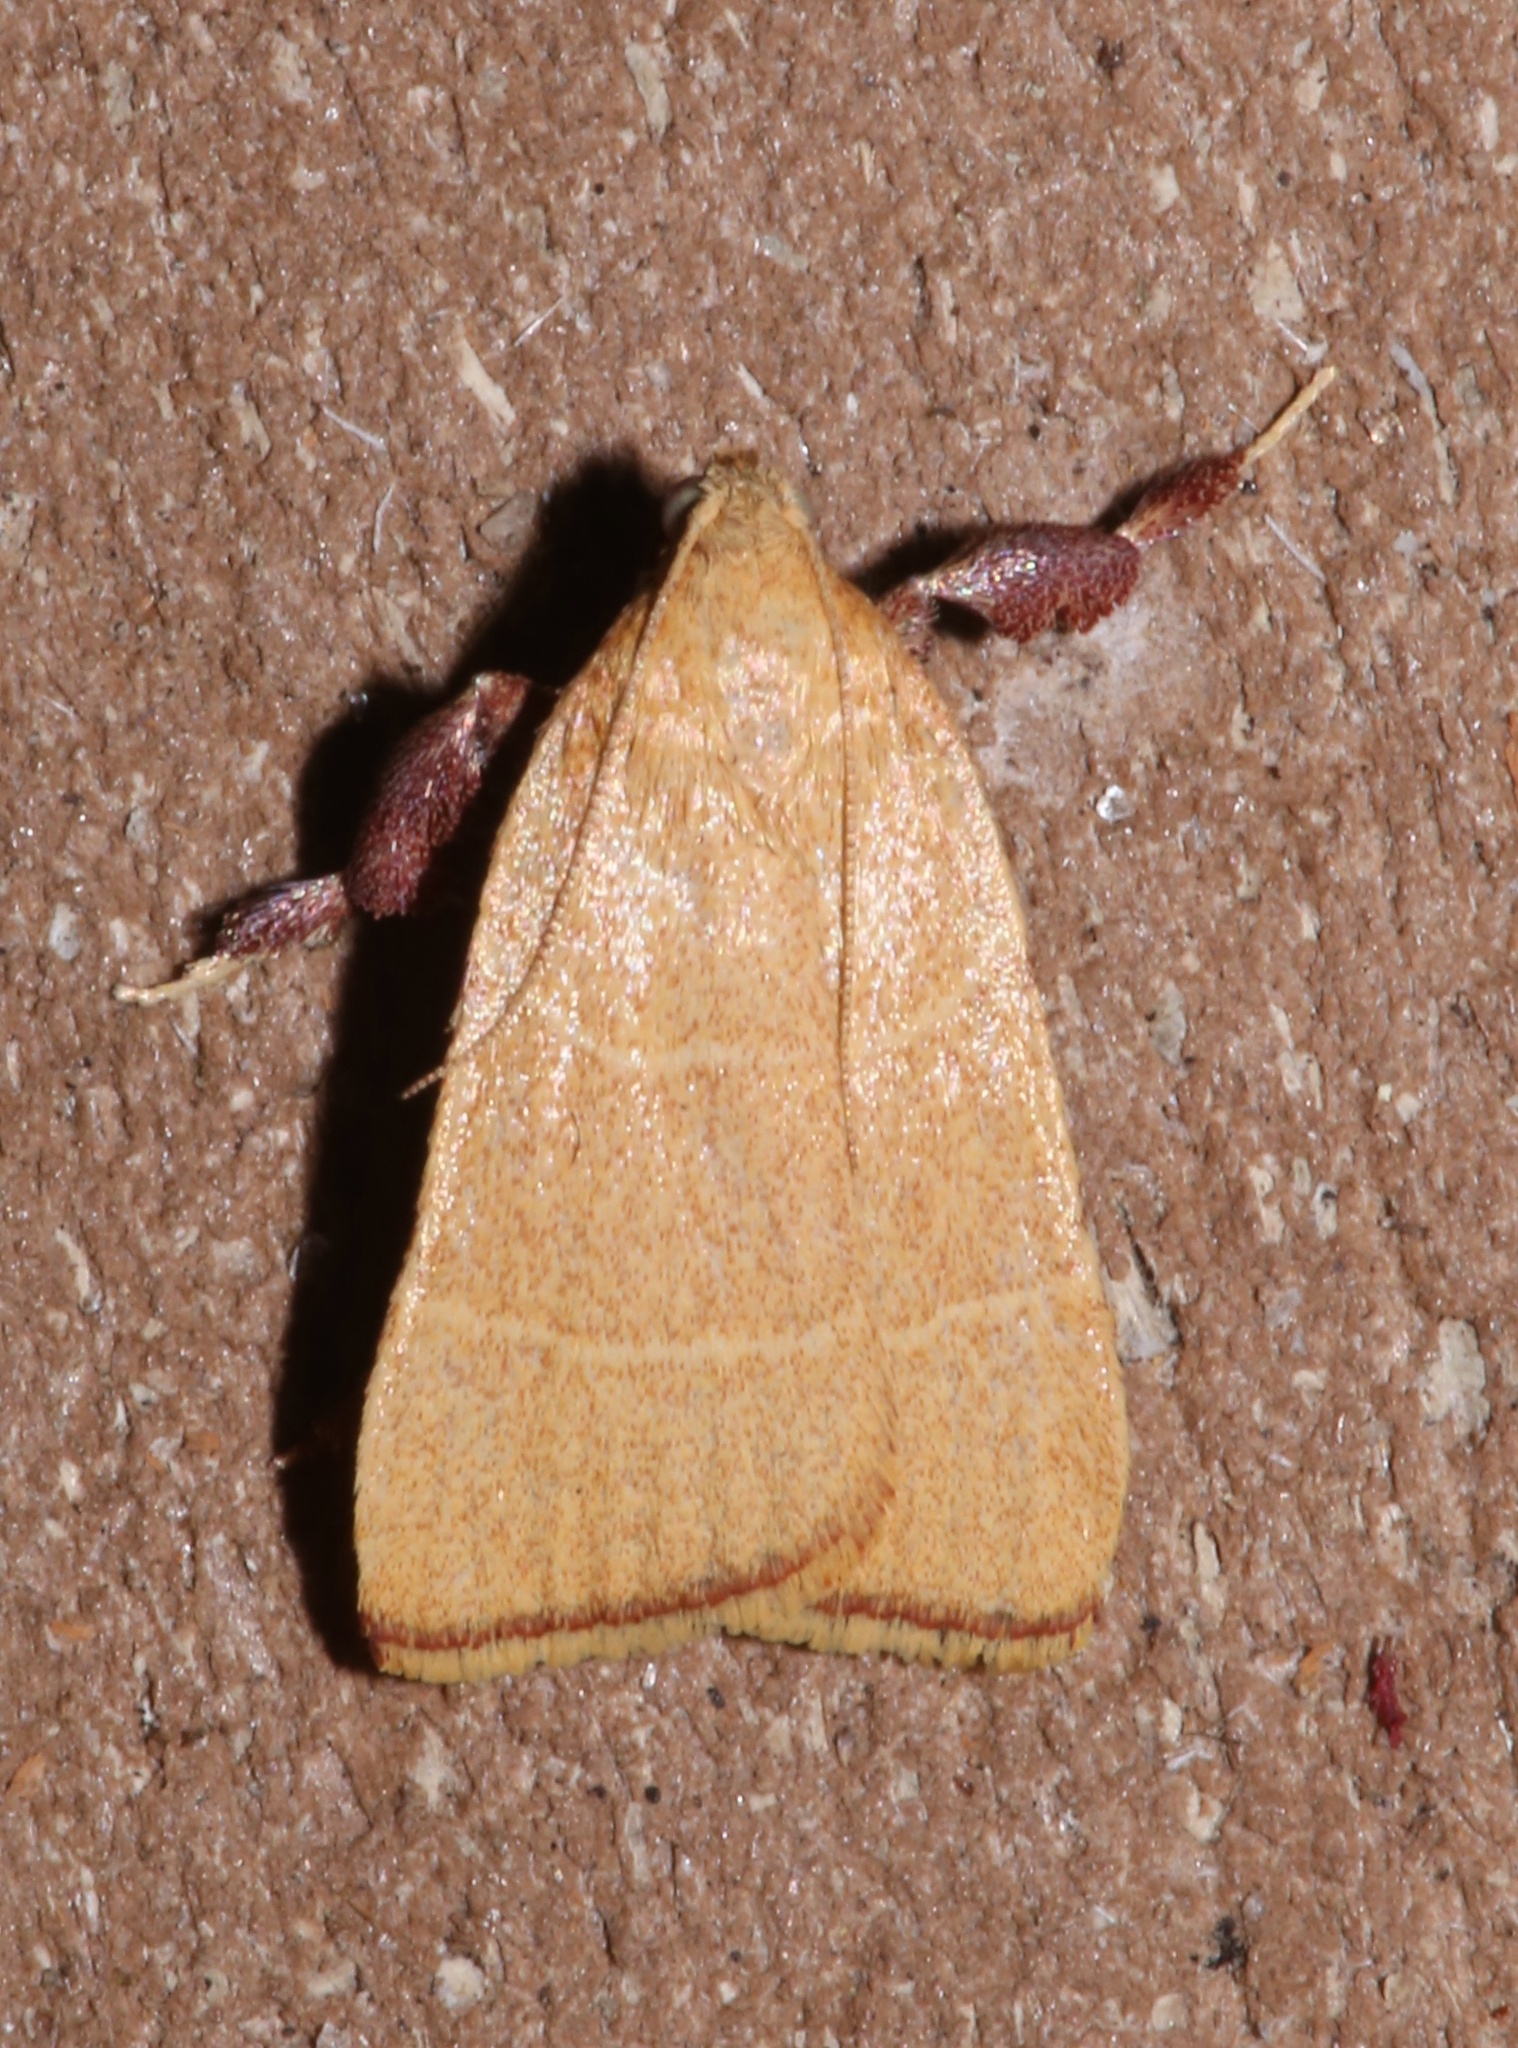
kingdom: Animalia
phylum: Arthropoda
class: Insecta
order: Lepidoptera
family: Pyralidae
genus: Parachma
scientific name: Parachma ochracealis
